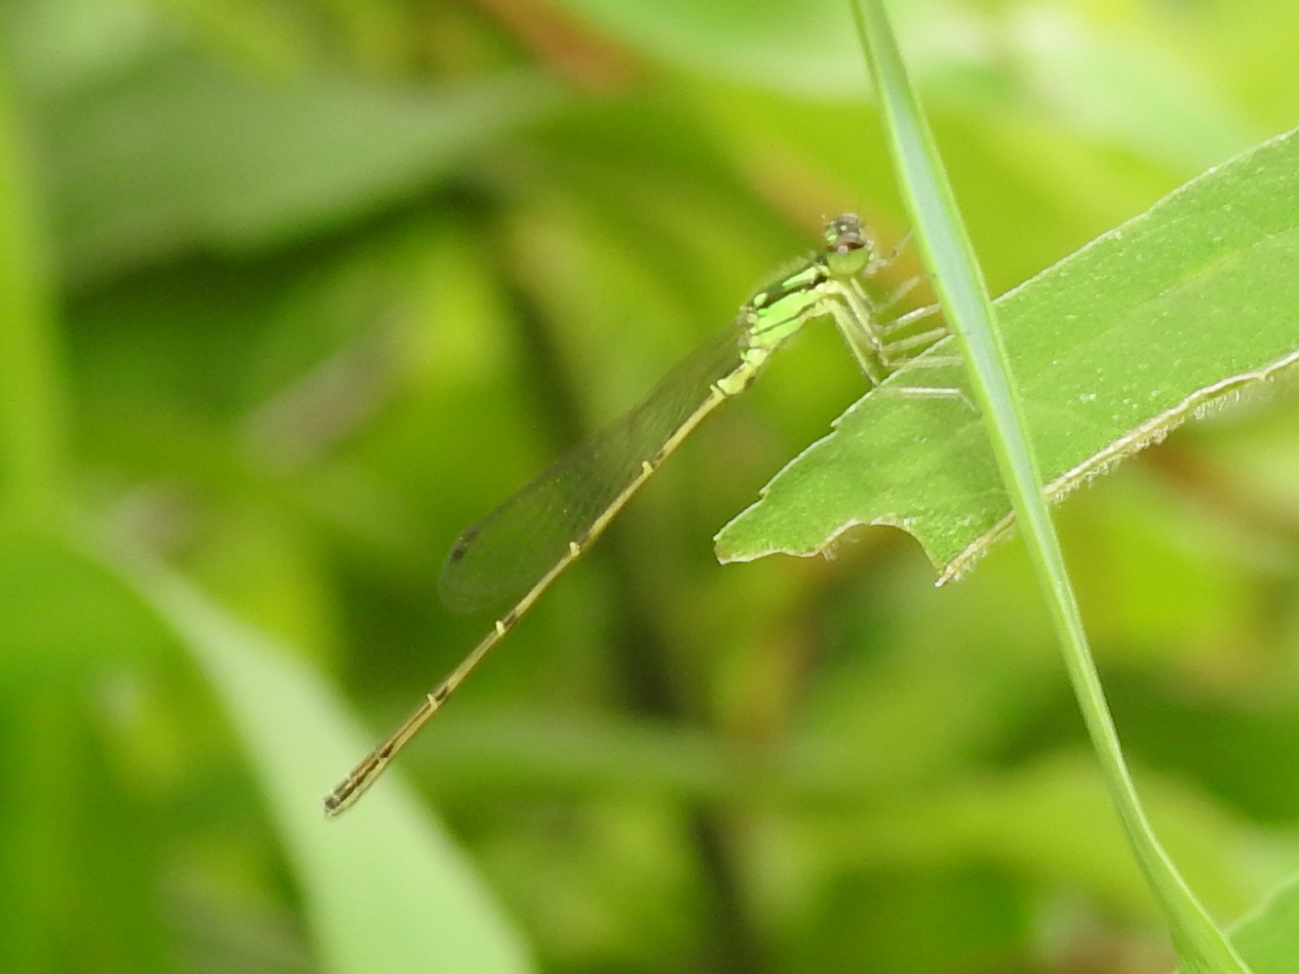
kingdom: Animalia
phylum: Arthropoda
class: Insecta
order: Odonata
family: Coenagrionidae
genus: Ischnura
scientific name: Ischnura posita
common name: Fragile forktail
